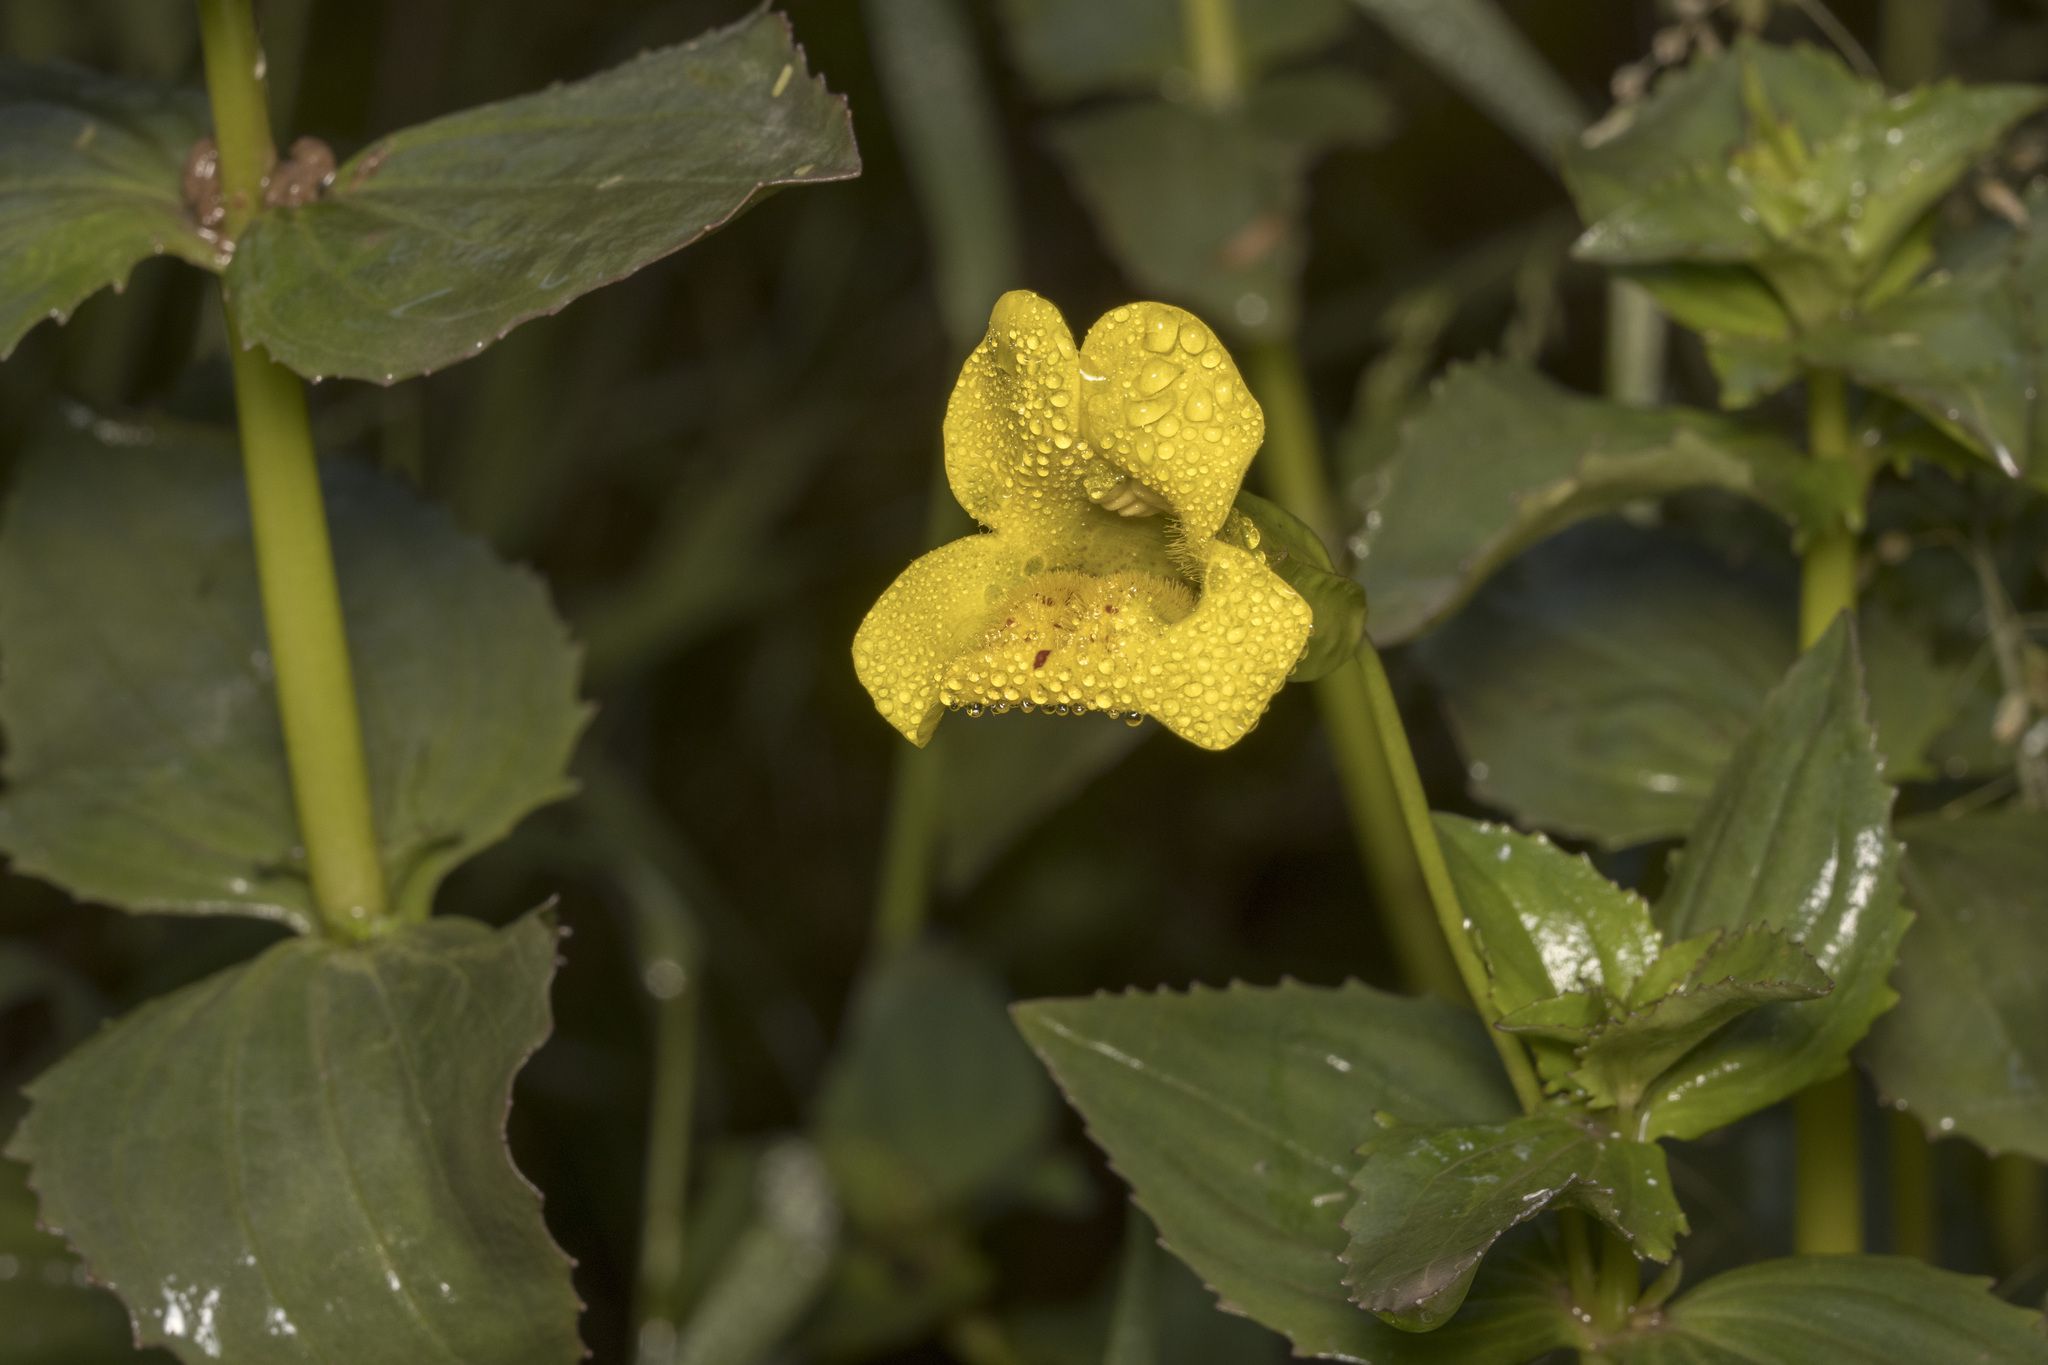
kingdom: Plantae
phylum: Tracheophyta
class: Magnoliopsida
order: Lamiales
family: Phrymaceae
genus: Erythranthe
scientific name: Erythranthe lutea
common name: Yellow monkey-flower
